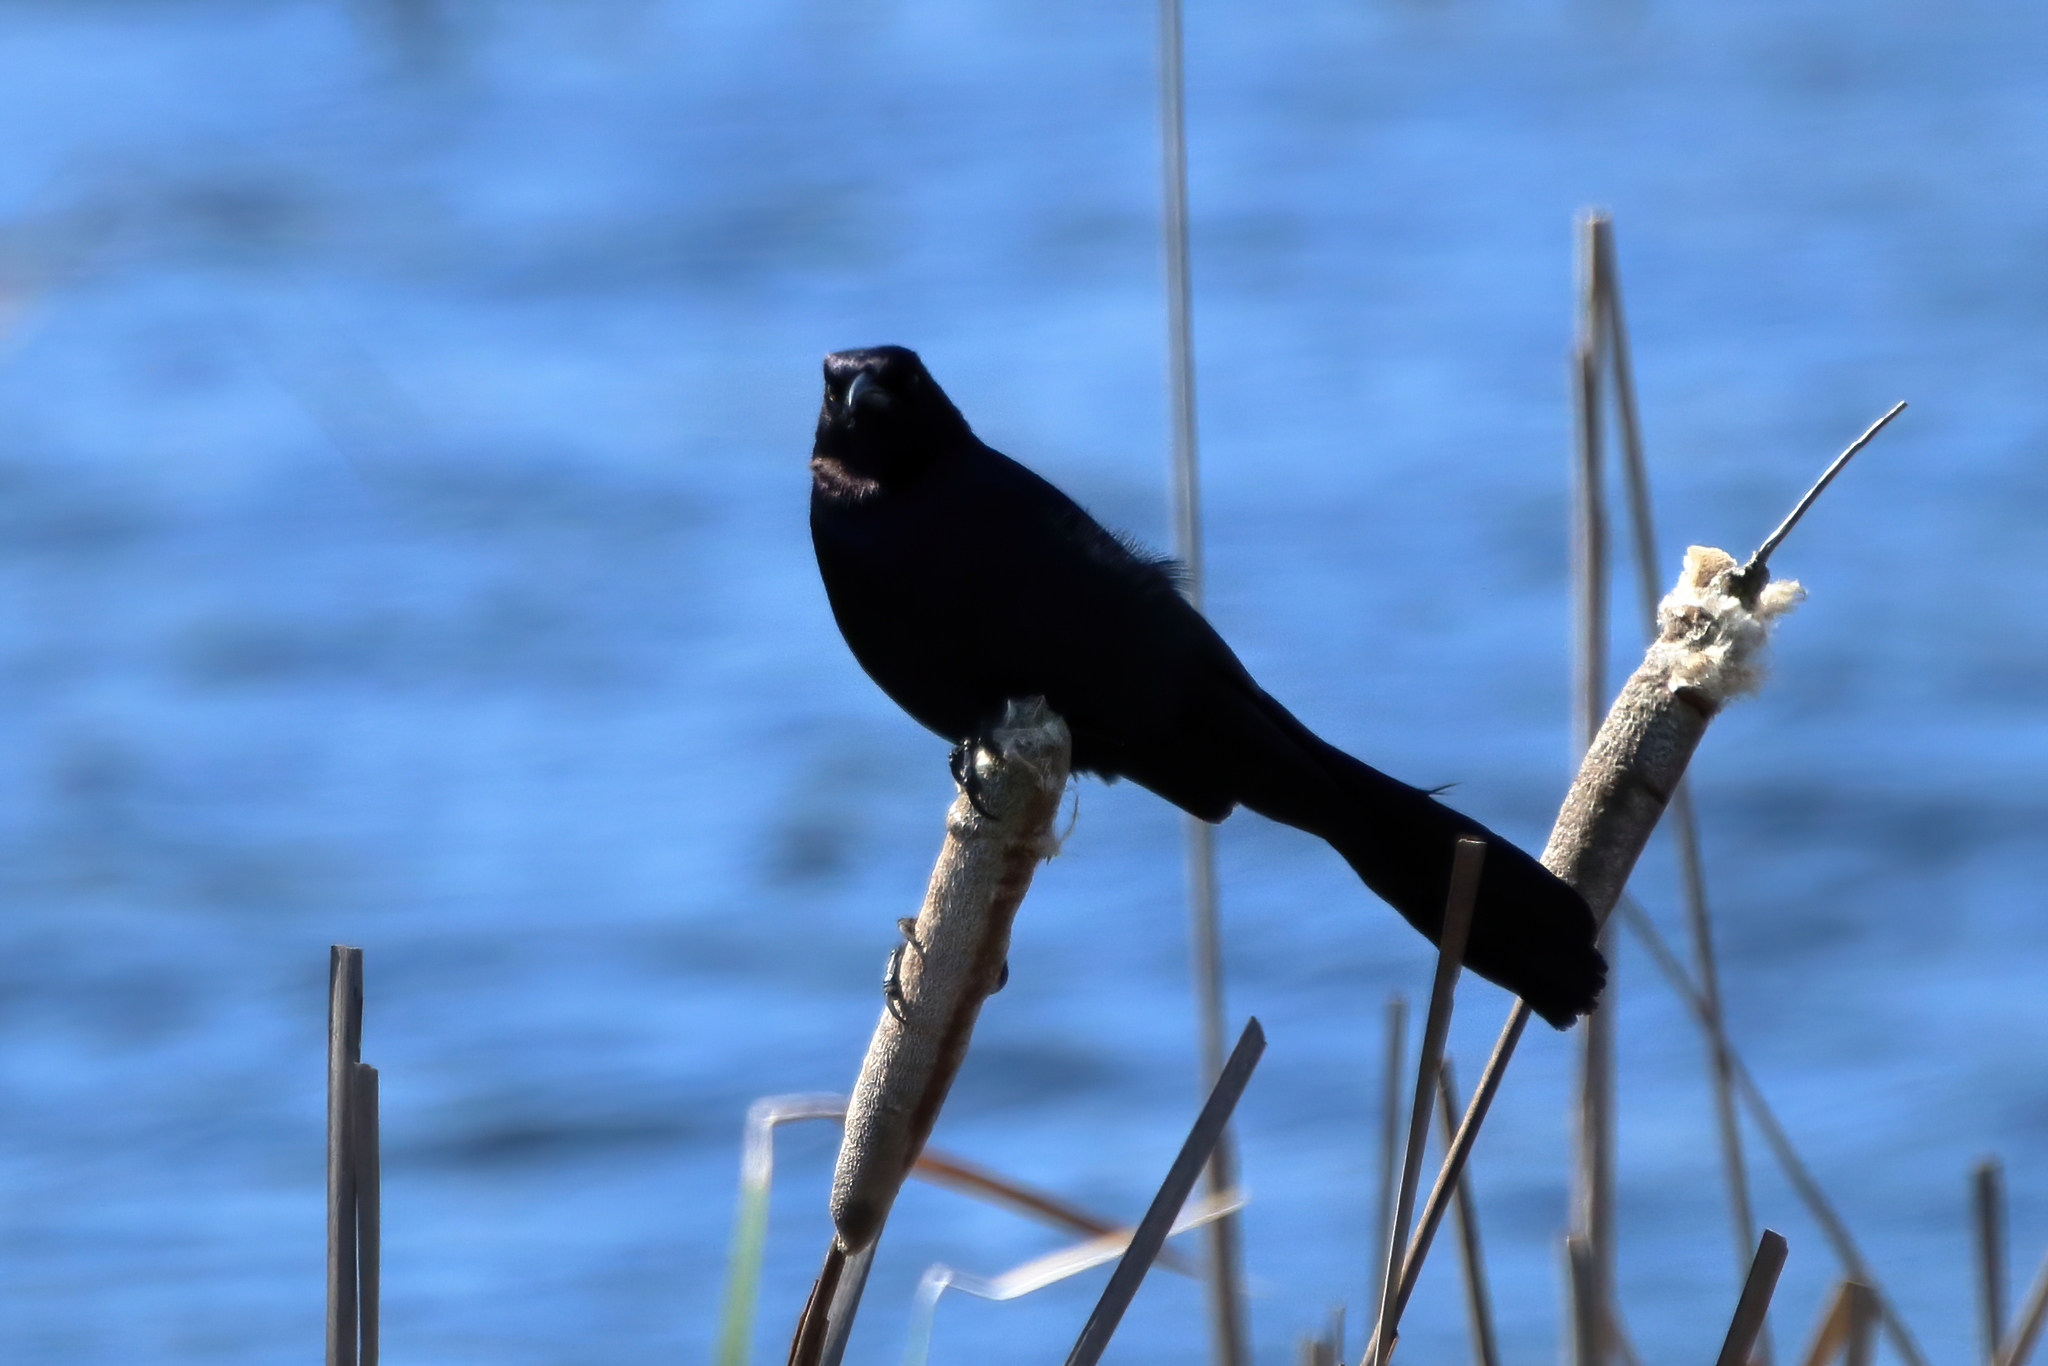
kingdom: Animalia
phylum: Chordata
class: Aves
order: Passeriformes
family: Icteridae
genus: Quiscalus
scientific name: Quiscalus major
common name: Boat-tailed grackle
